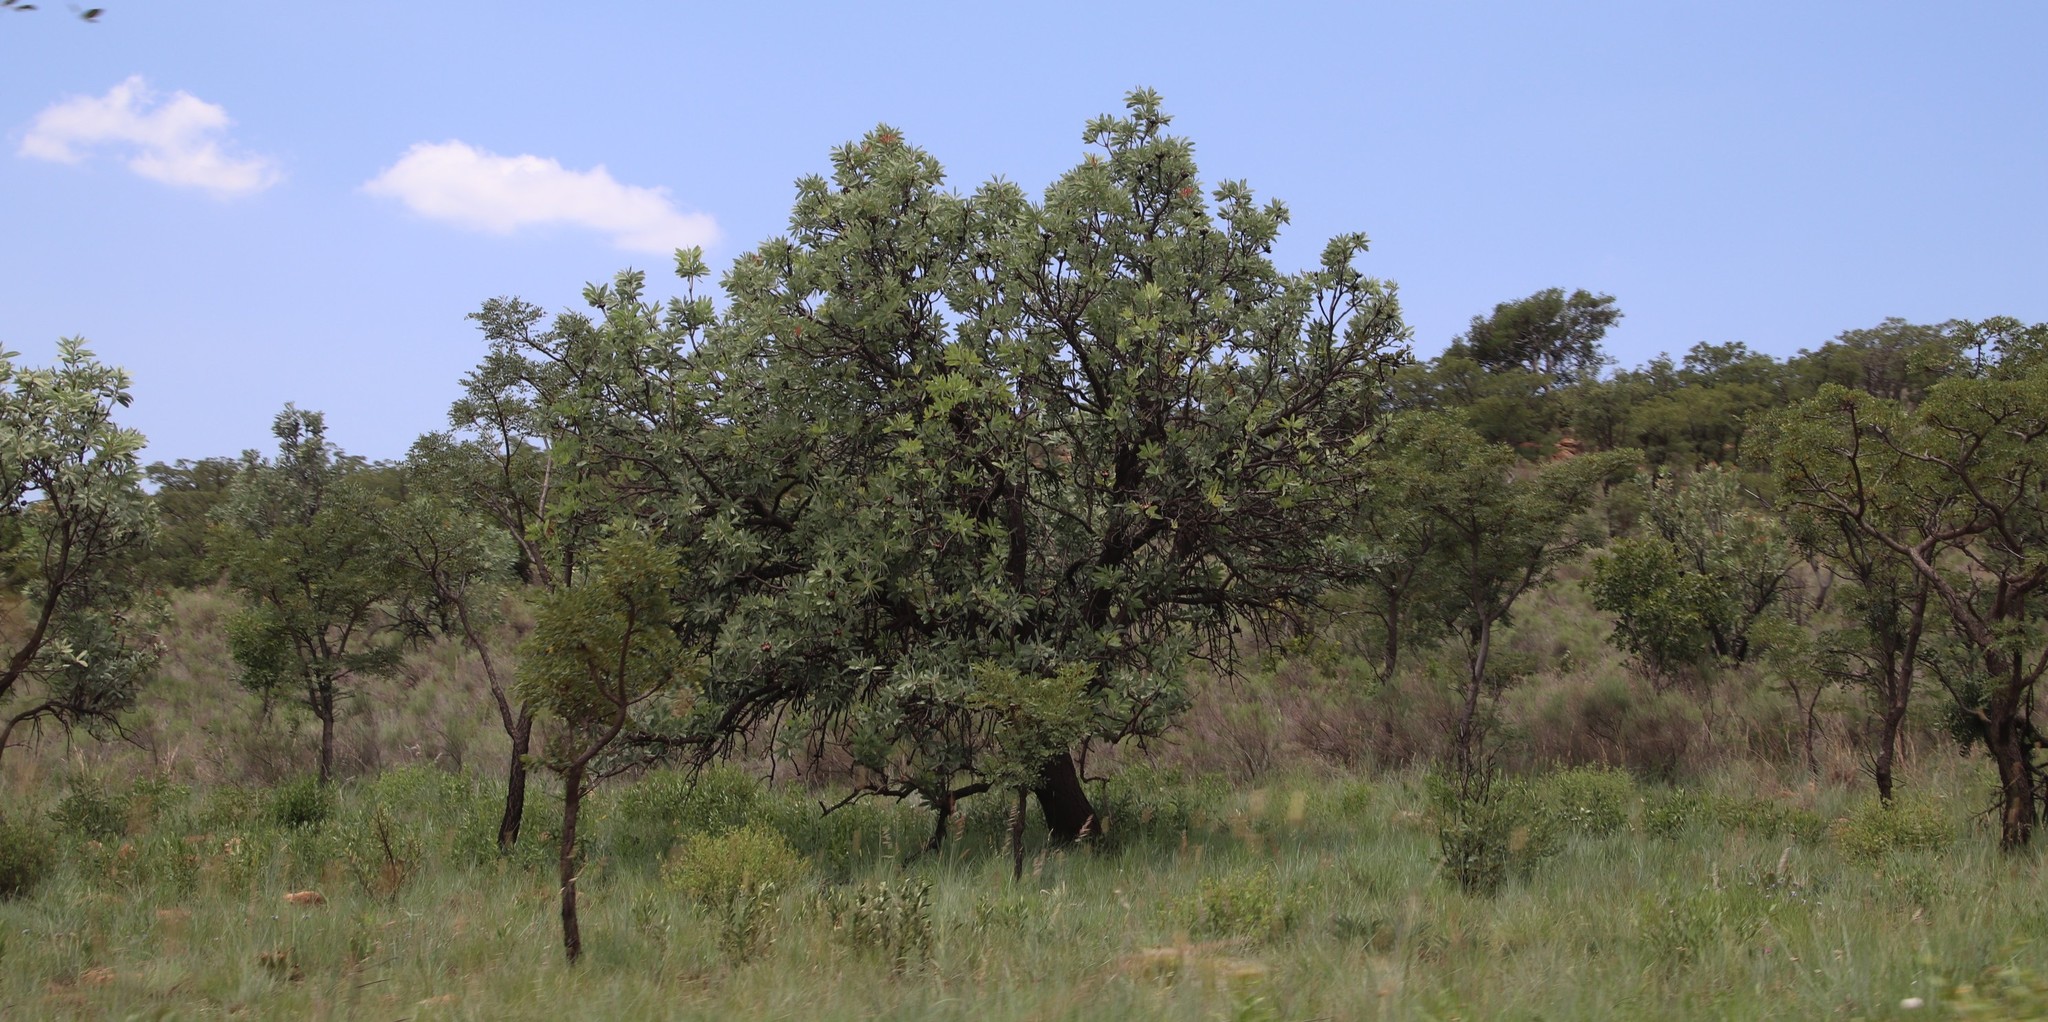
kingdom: Plantae
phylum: Tracheophyta
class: Magnoliopsida
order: Proteales
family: Proteaceae
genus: Protea
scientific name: Protea caffra
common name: Common sugarbush
